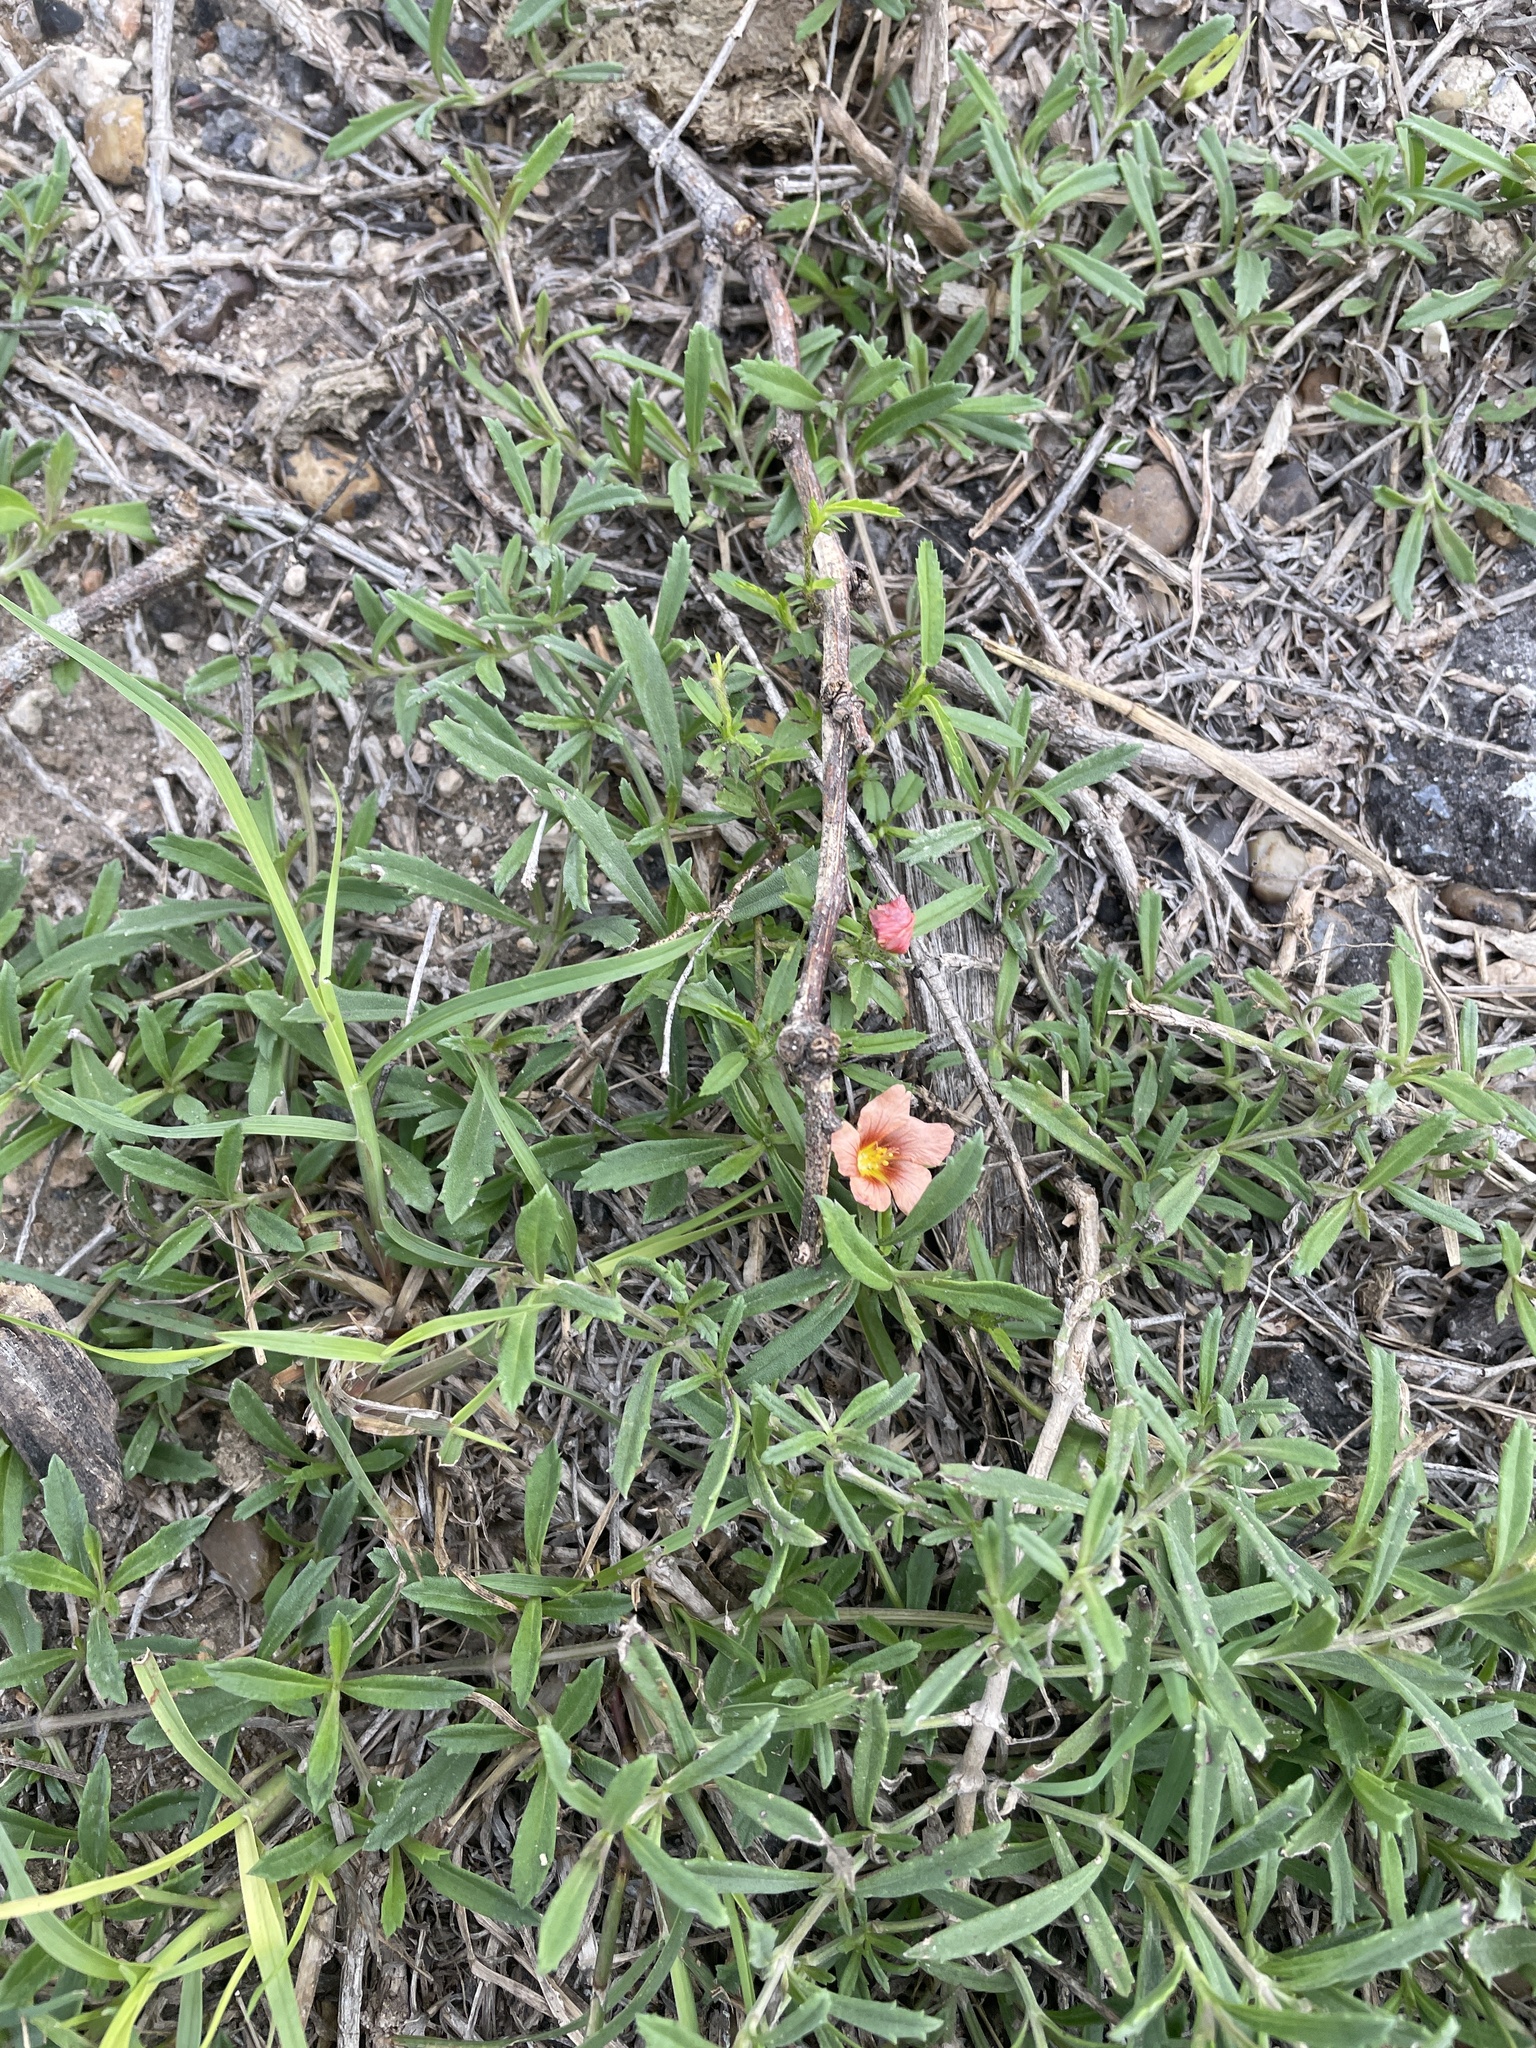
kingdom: Plantae
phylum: Tracheophyta
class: Magnoliopsida
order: Malvales
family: Malvaceae
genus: Sida
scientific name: Sida ciliaris
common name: Bracted fanpetals
